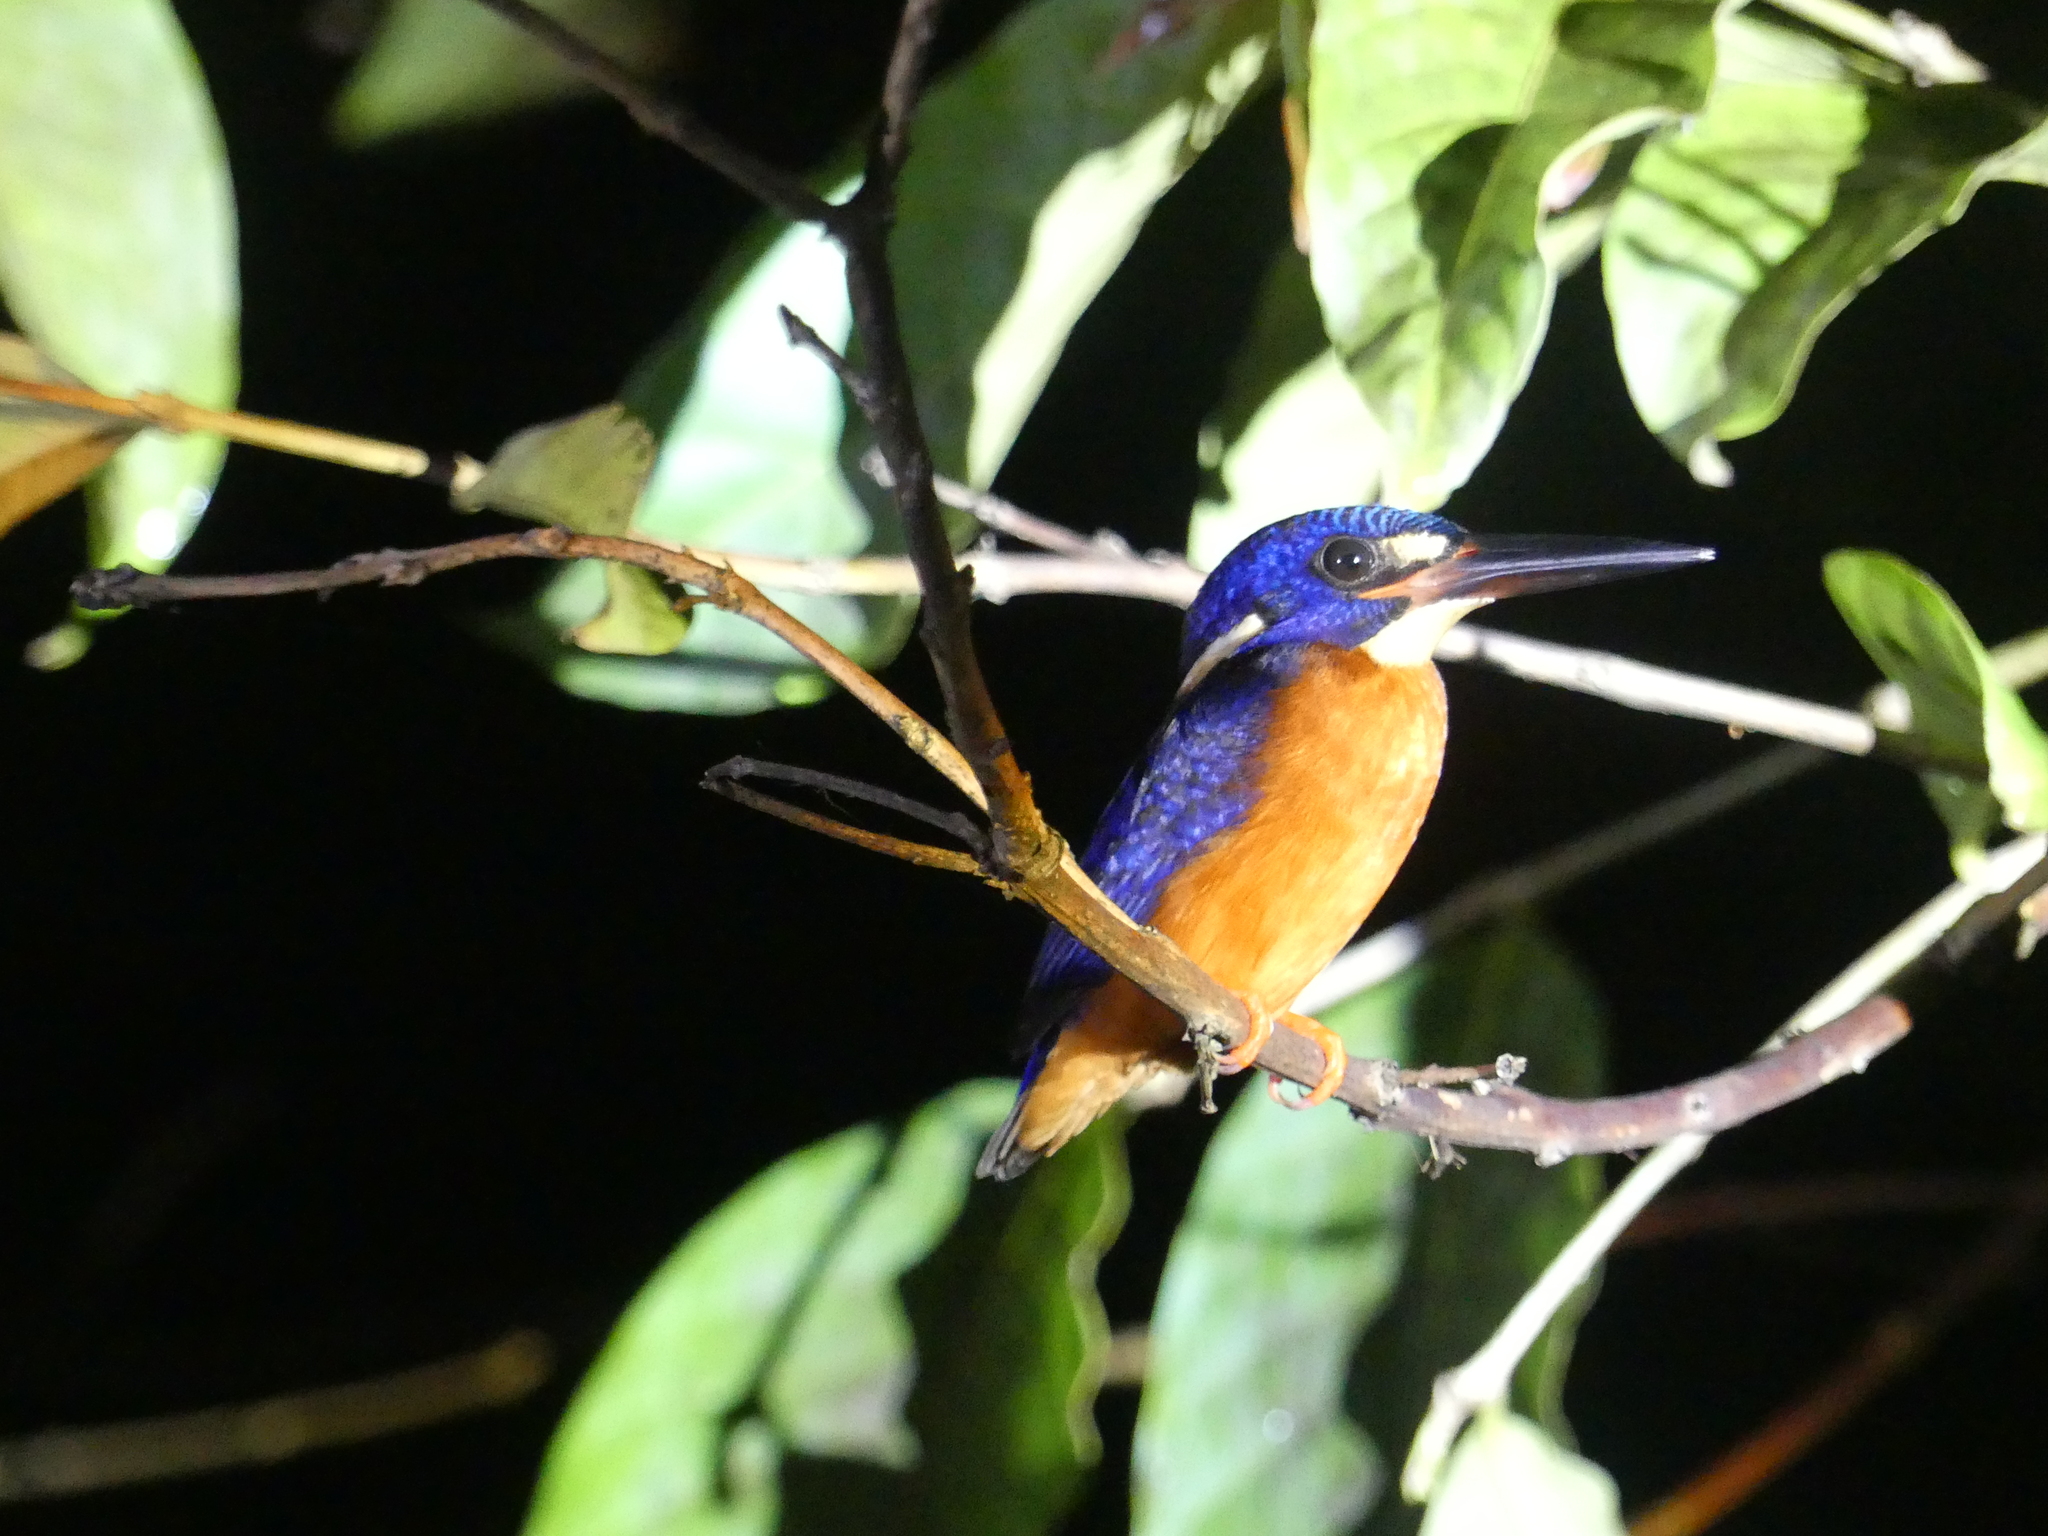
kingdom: Animalia
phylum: Chordata
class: Aves
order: Coraciiformes
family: Alcedinidae
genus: Alcedo
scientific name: Alcedo meninting
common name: Blue-eared kingfisher
